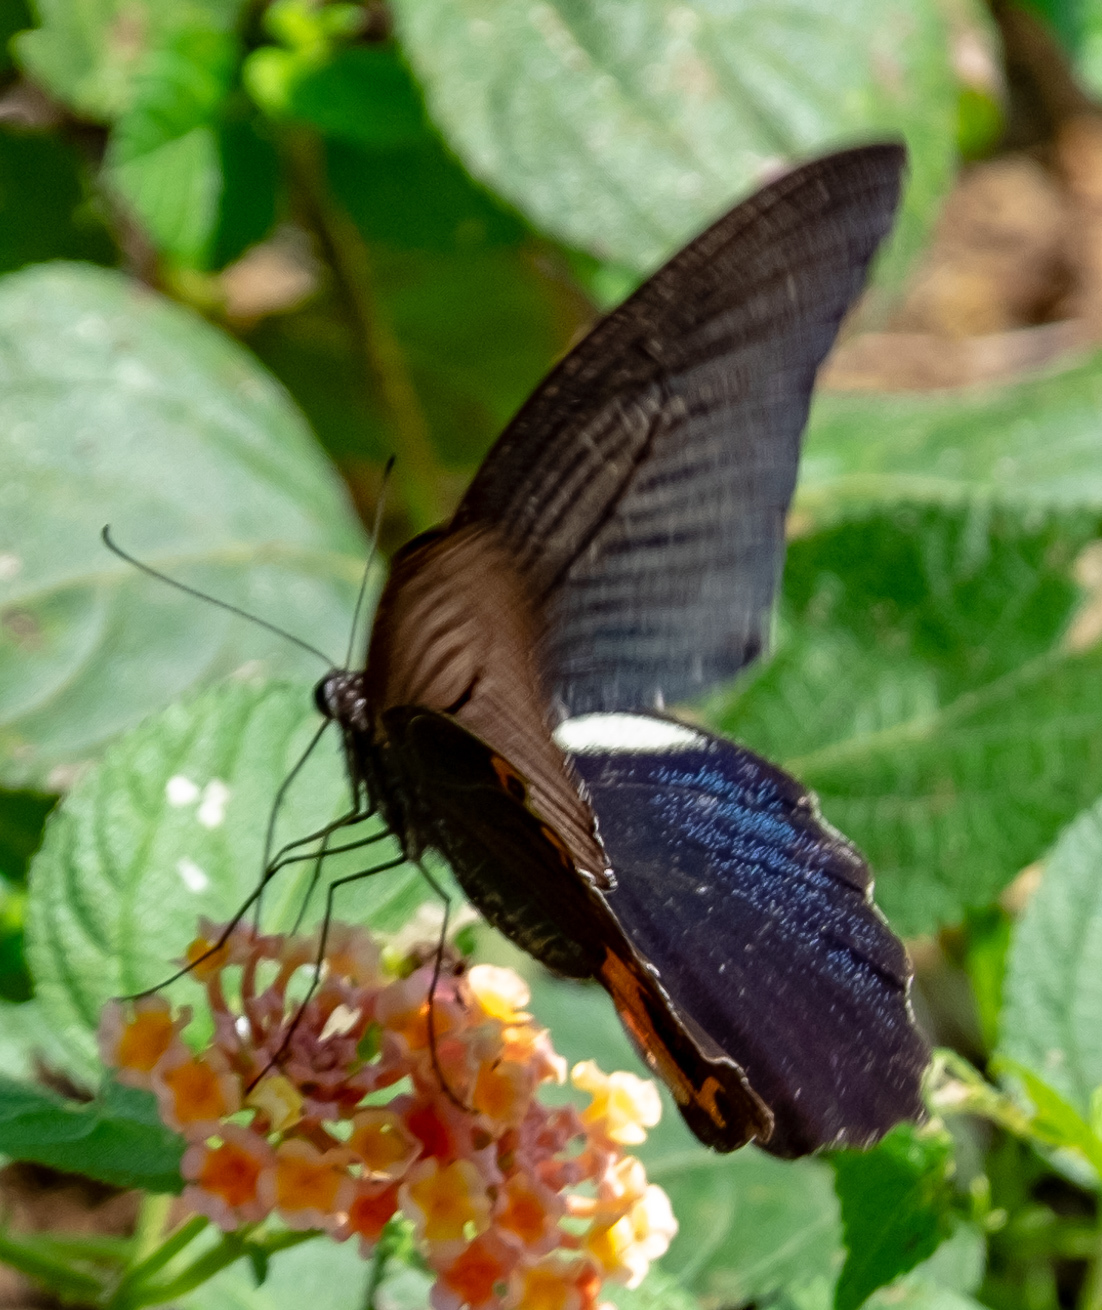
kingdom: Animalia
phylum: Arthropoda
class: Insecta
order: Lepidoptera
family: Papilionidae
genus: Papilio
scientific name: Papilio protenor
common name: Spangle
